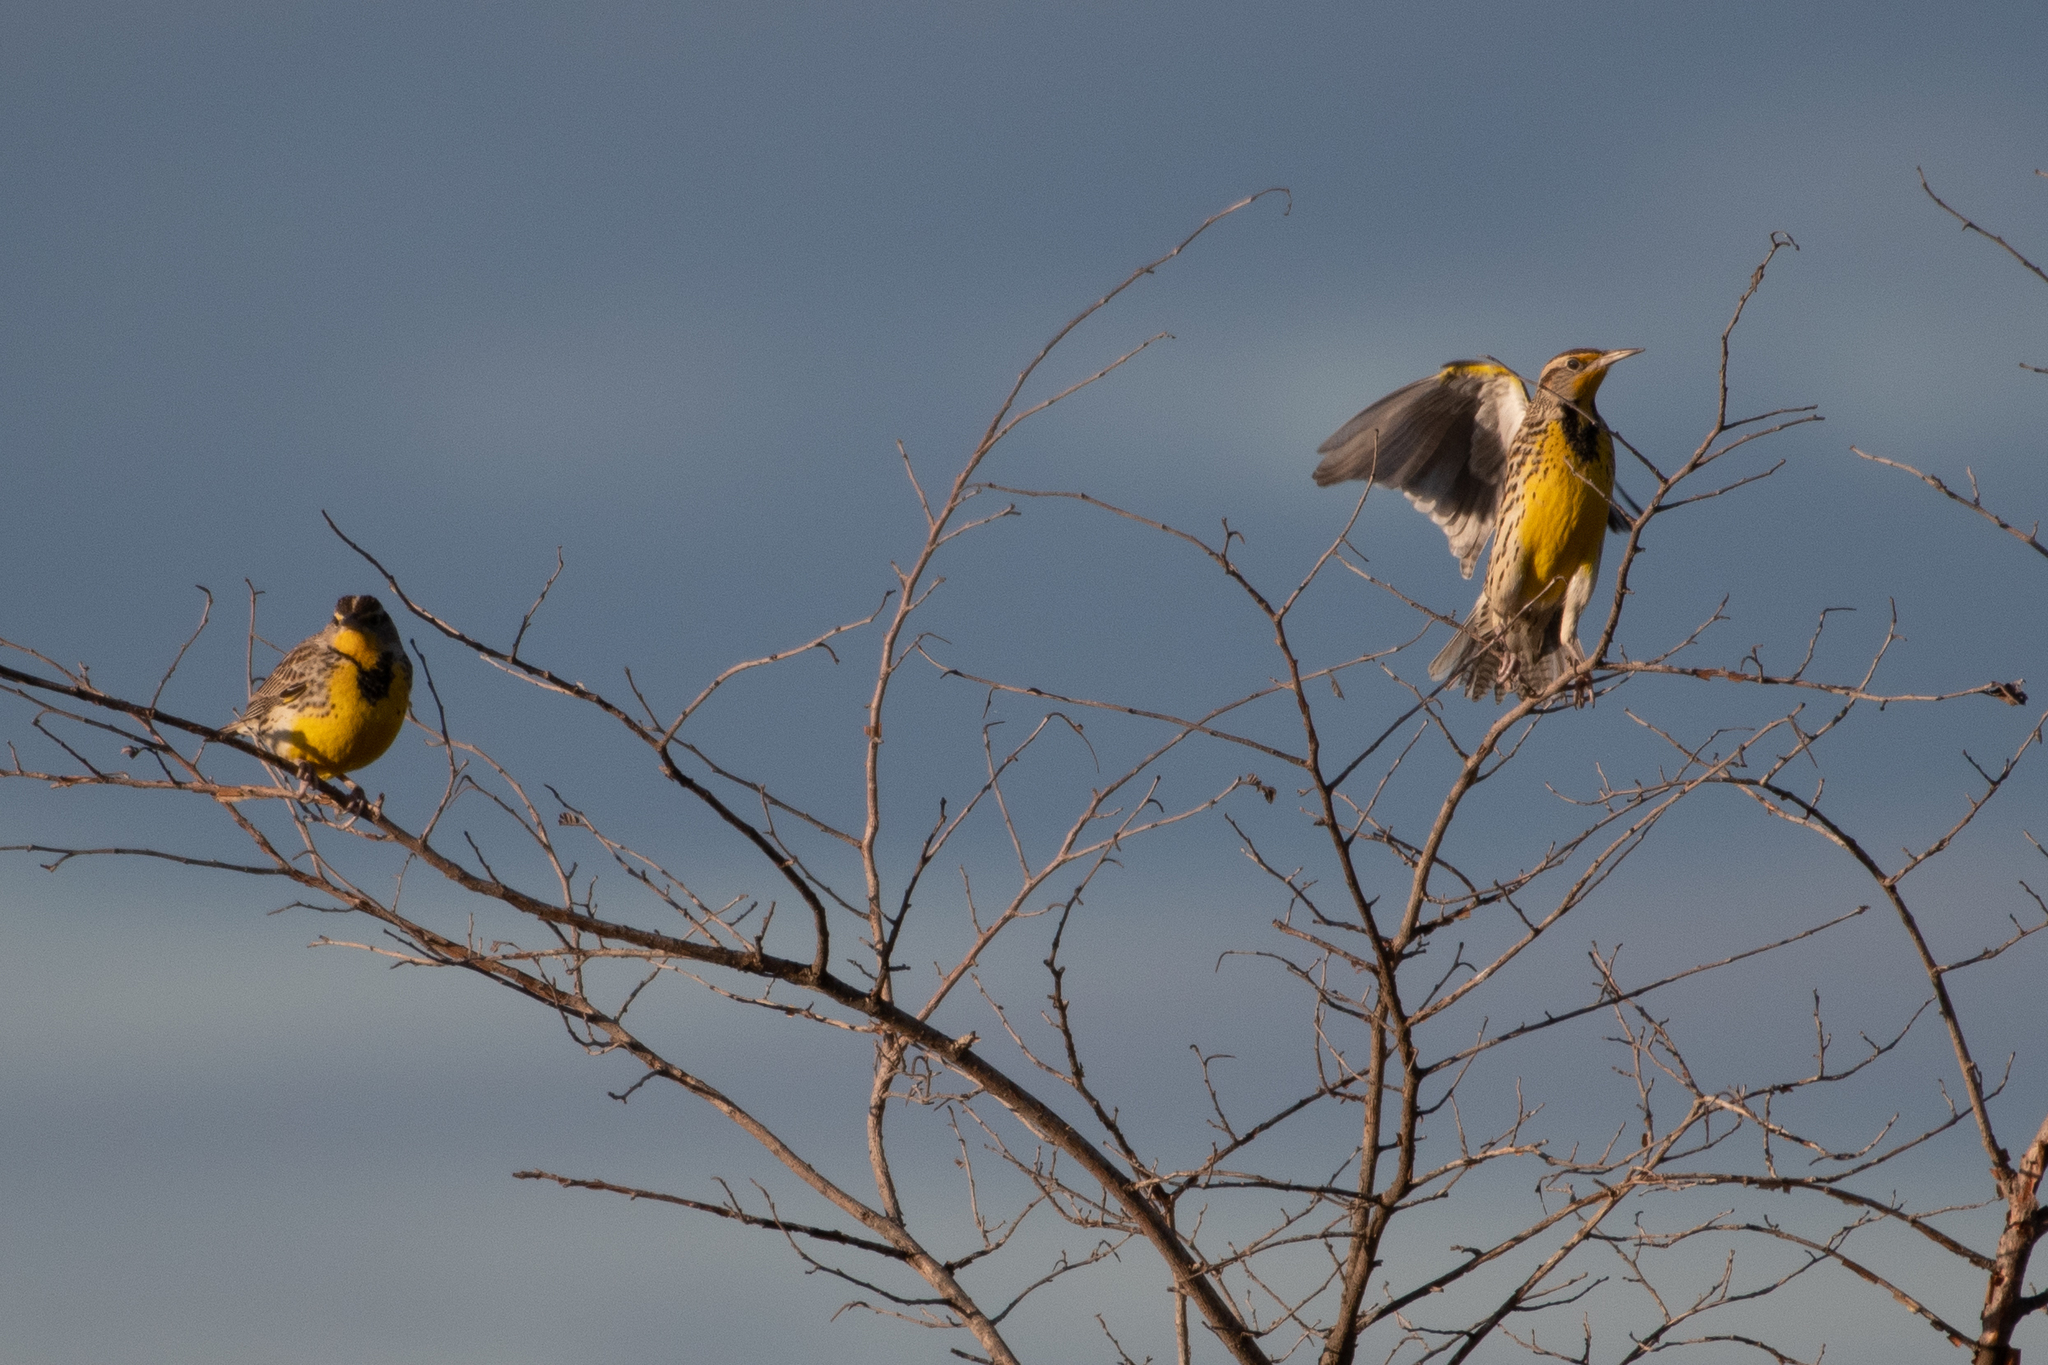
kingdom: Animalia
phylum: Chordata
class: Aves
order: Passeriformes
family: Icteridae
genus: Sturnella
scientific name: Sturnella neglecta
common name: Western meadowlark
